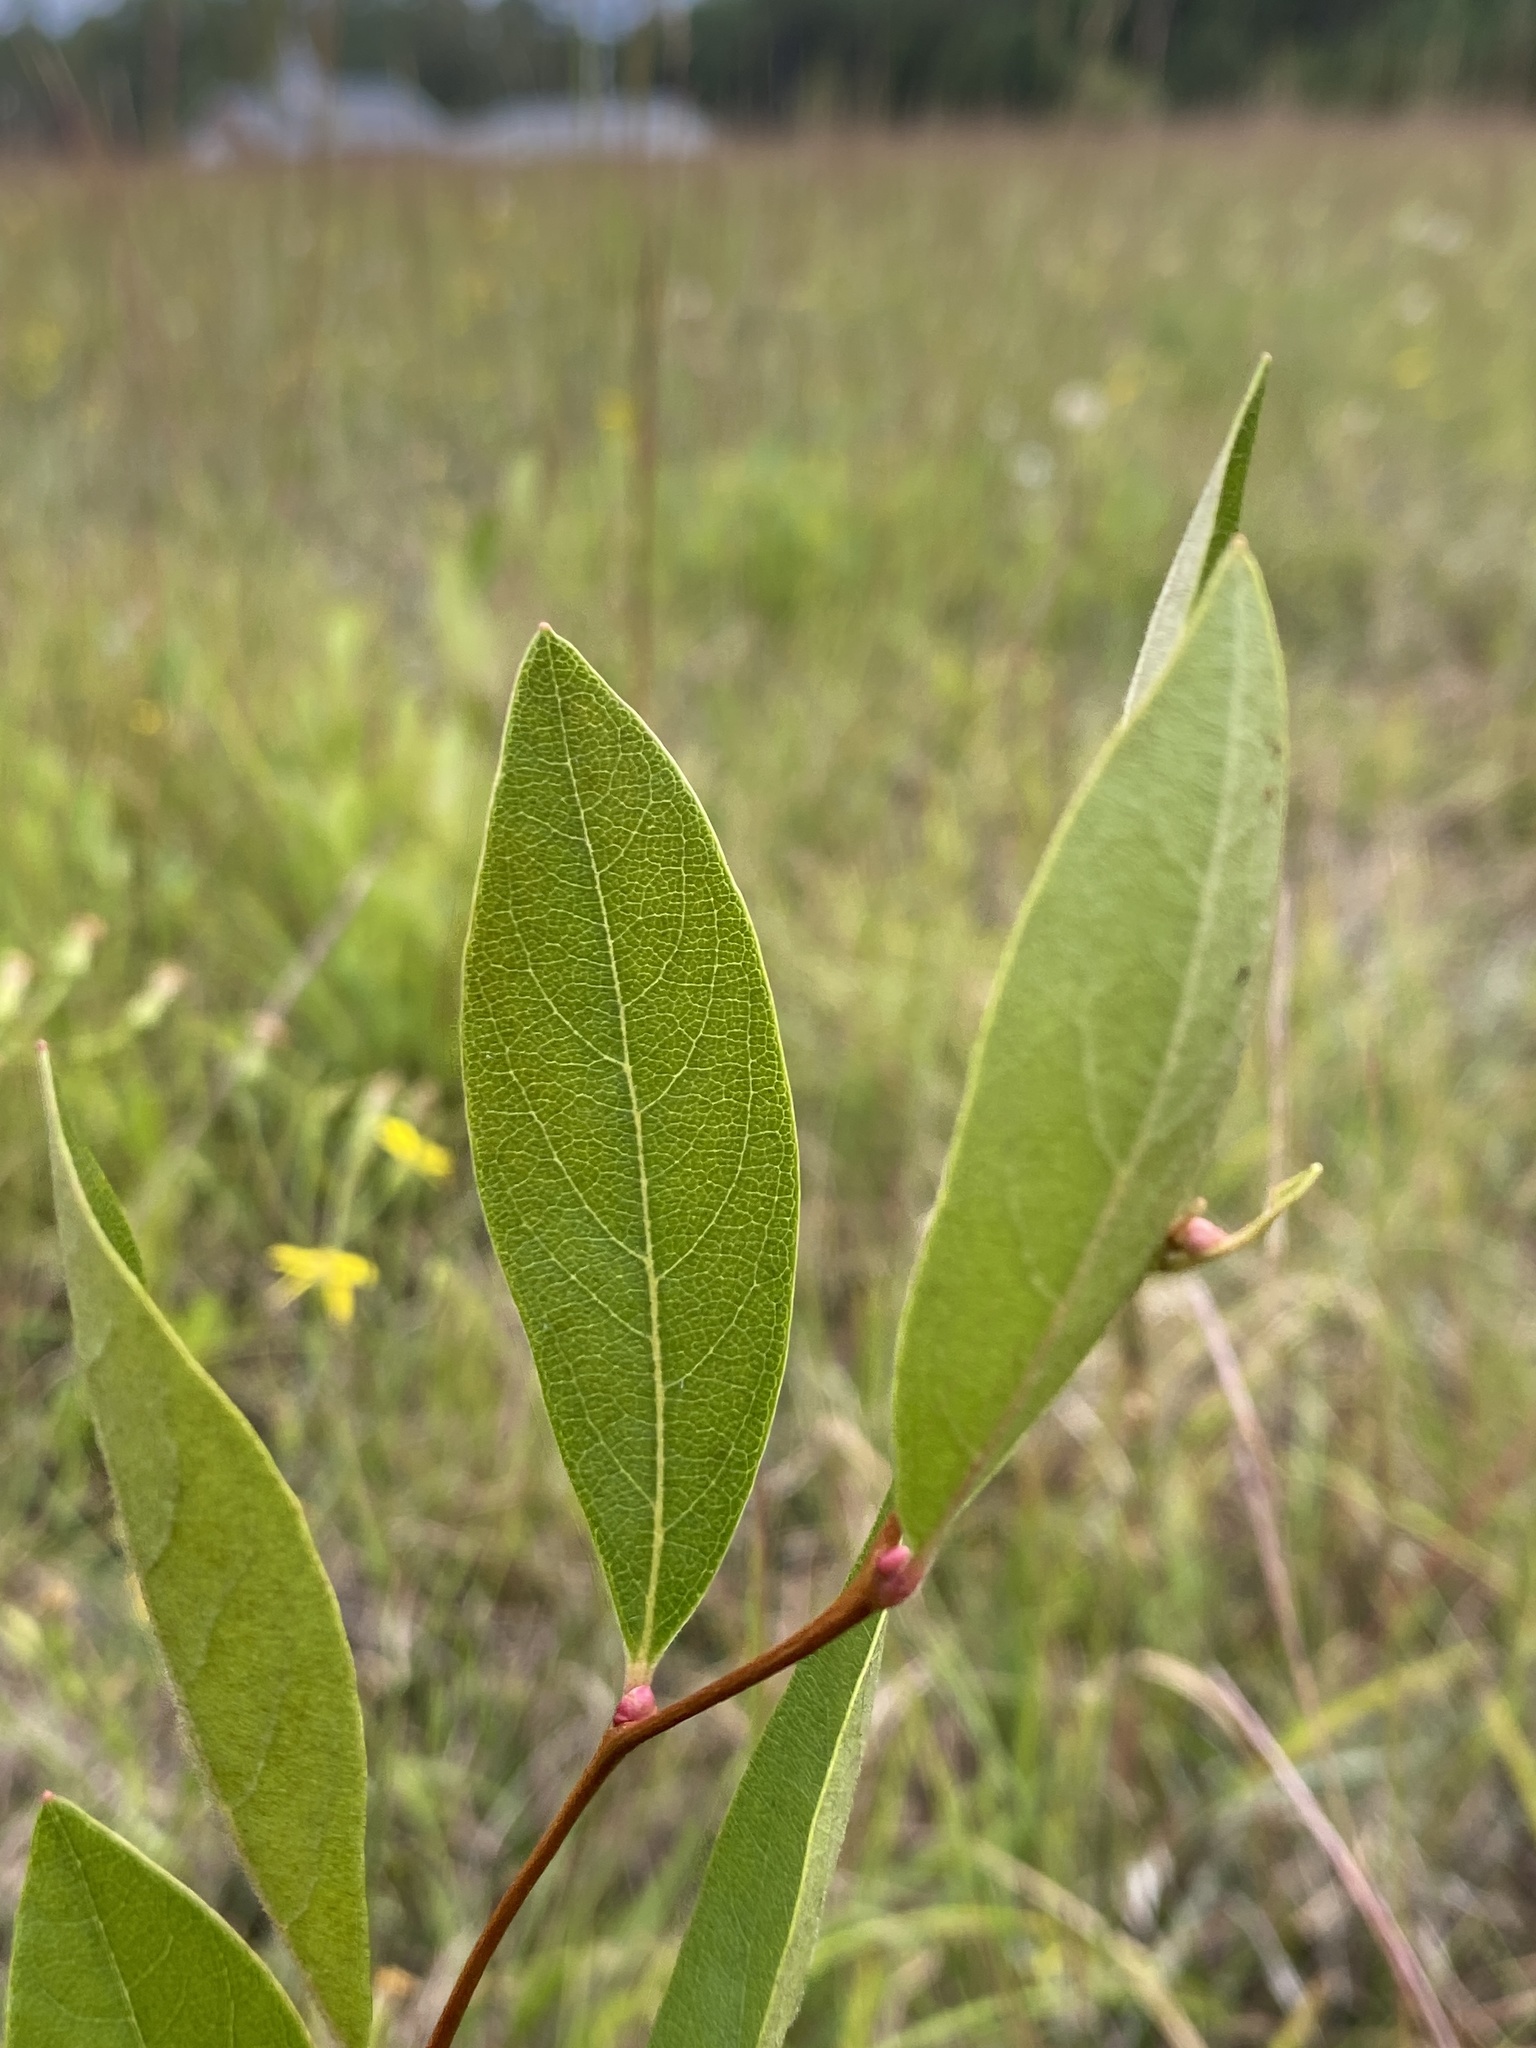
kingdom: Plantae
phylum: Tracheophyta
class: Magnoliopsida
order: Ericales
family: Ericaceae
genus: Lyonia
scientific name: Lyonia mariana
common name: Staggerbush
